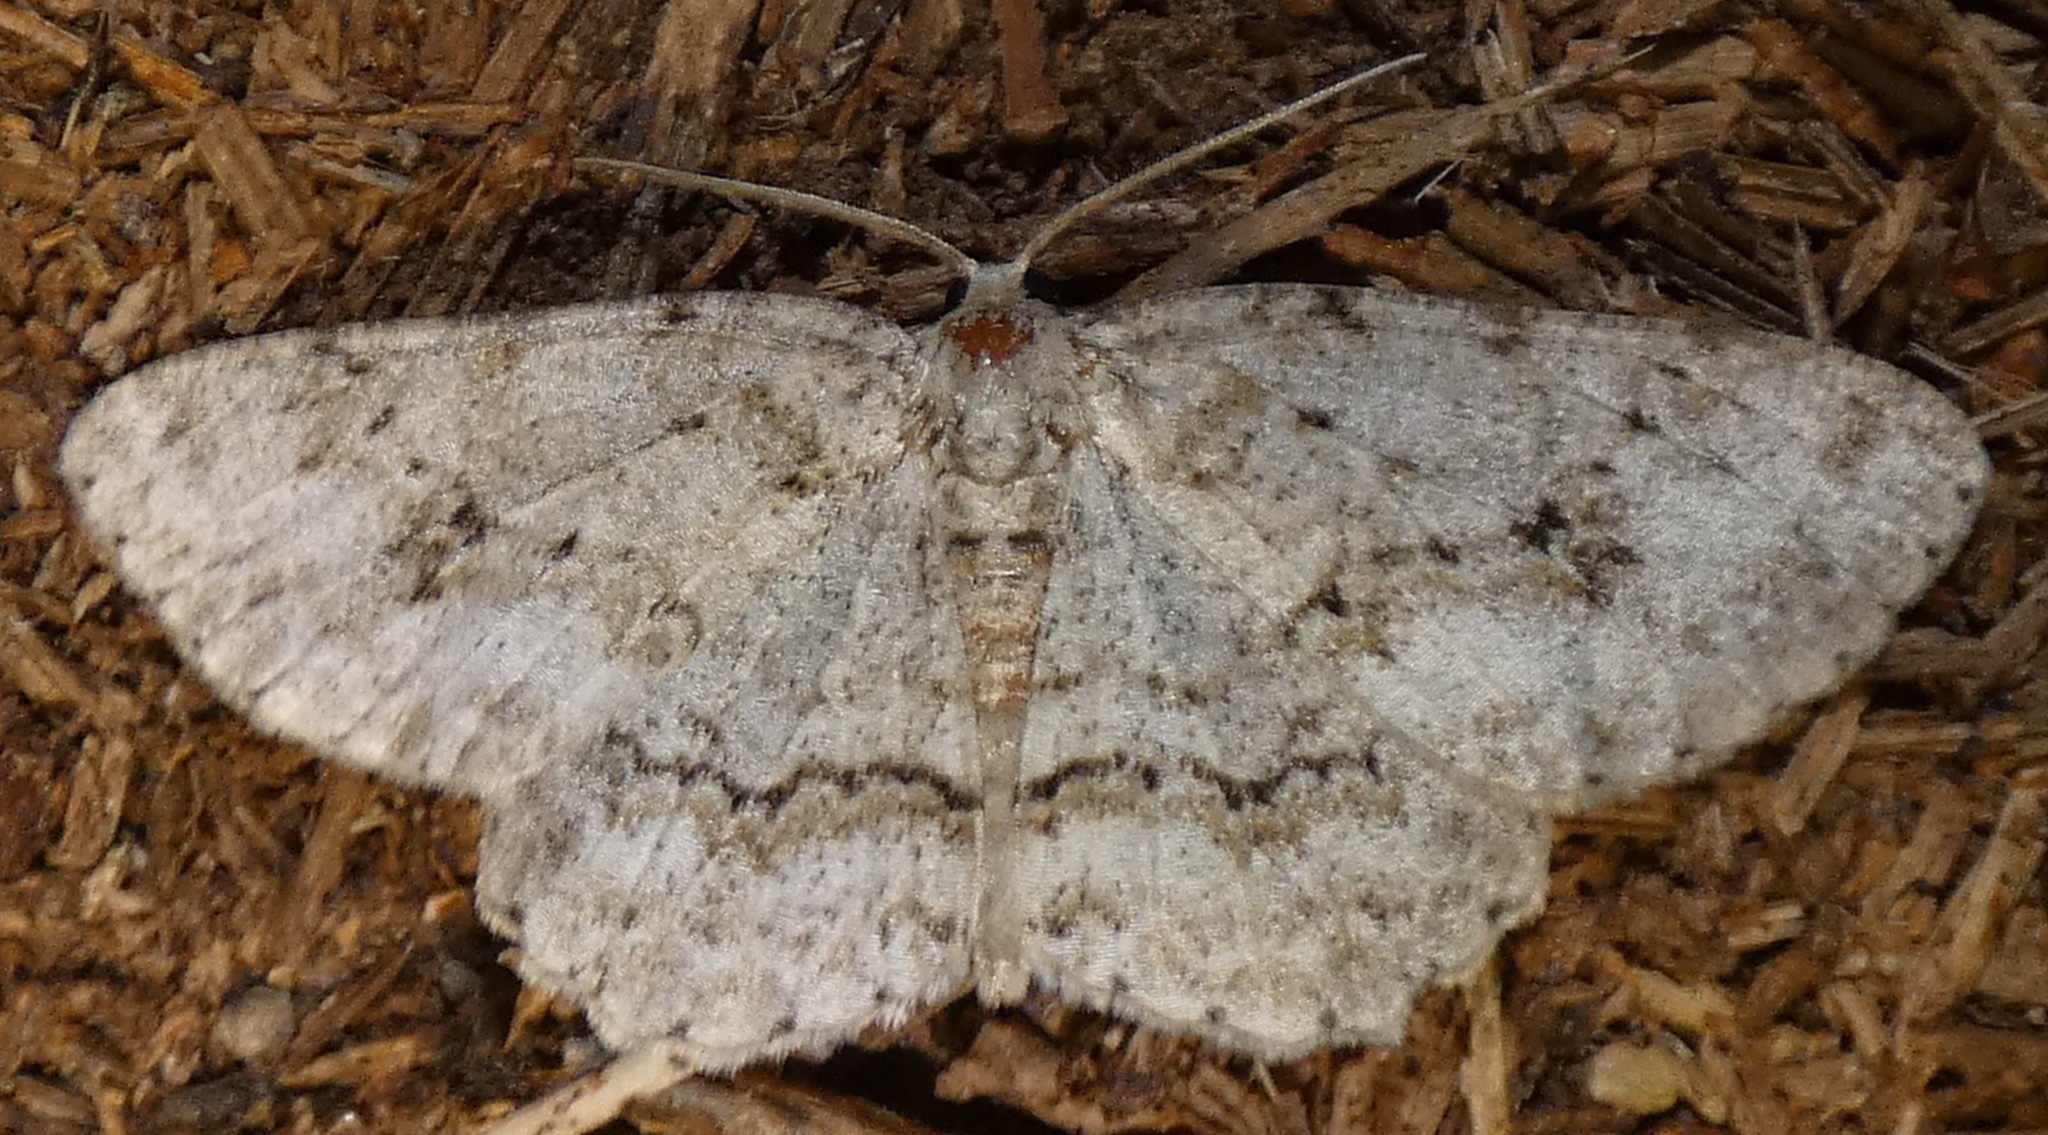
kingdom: Animalia
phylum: Arthropoda
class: Insecta
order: Lepidoptera
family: Geometridae
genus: Ectropis
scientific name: Ectropis crepuscularia
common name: Engrailed
